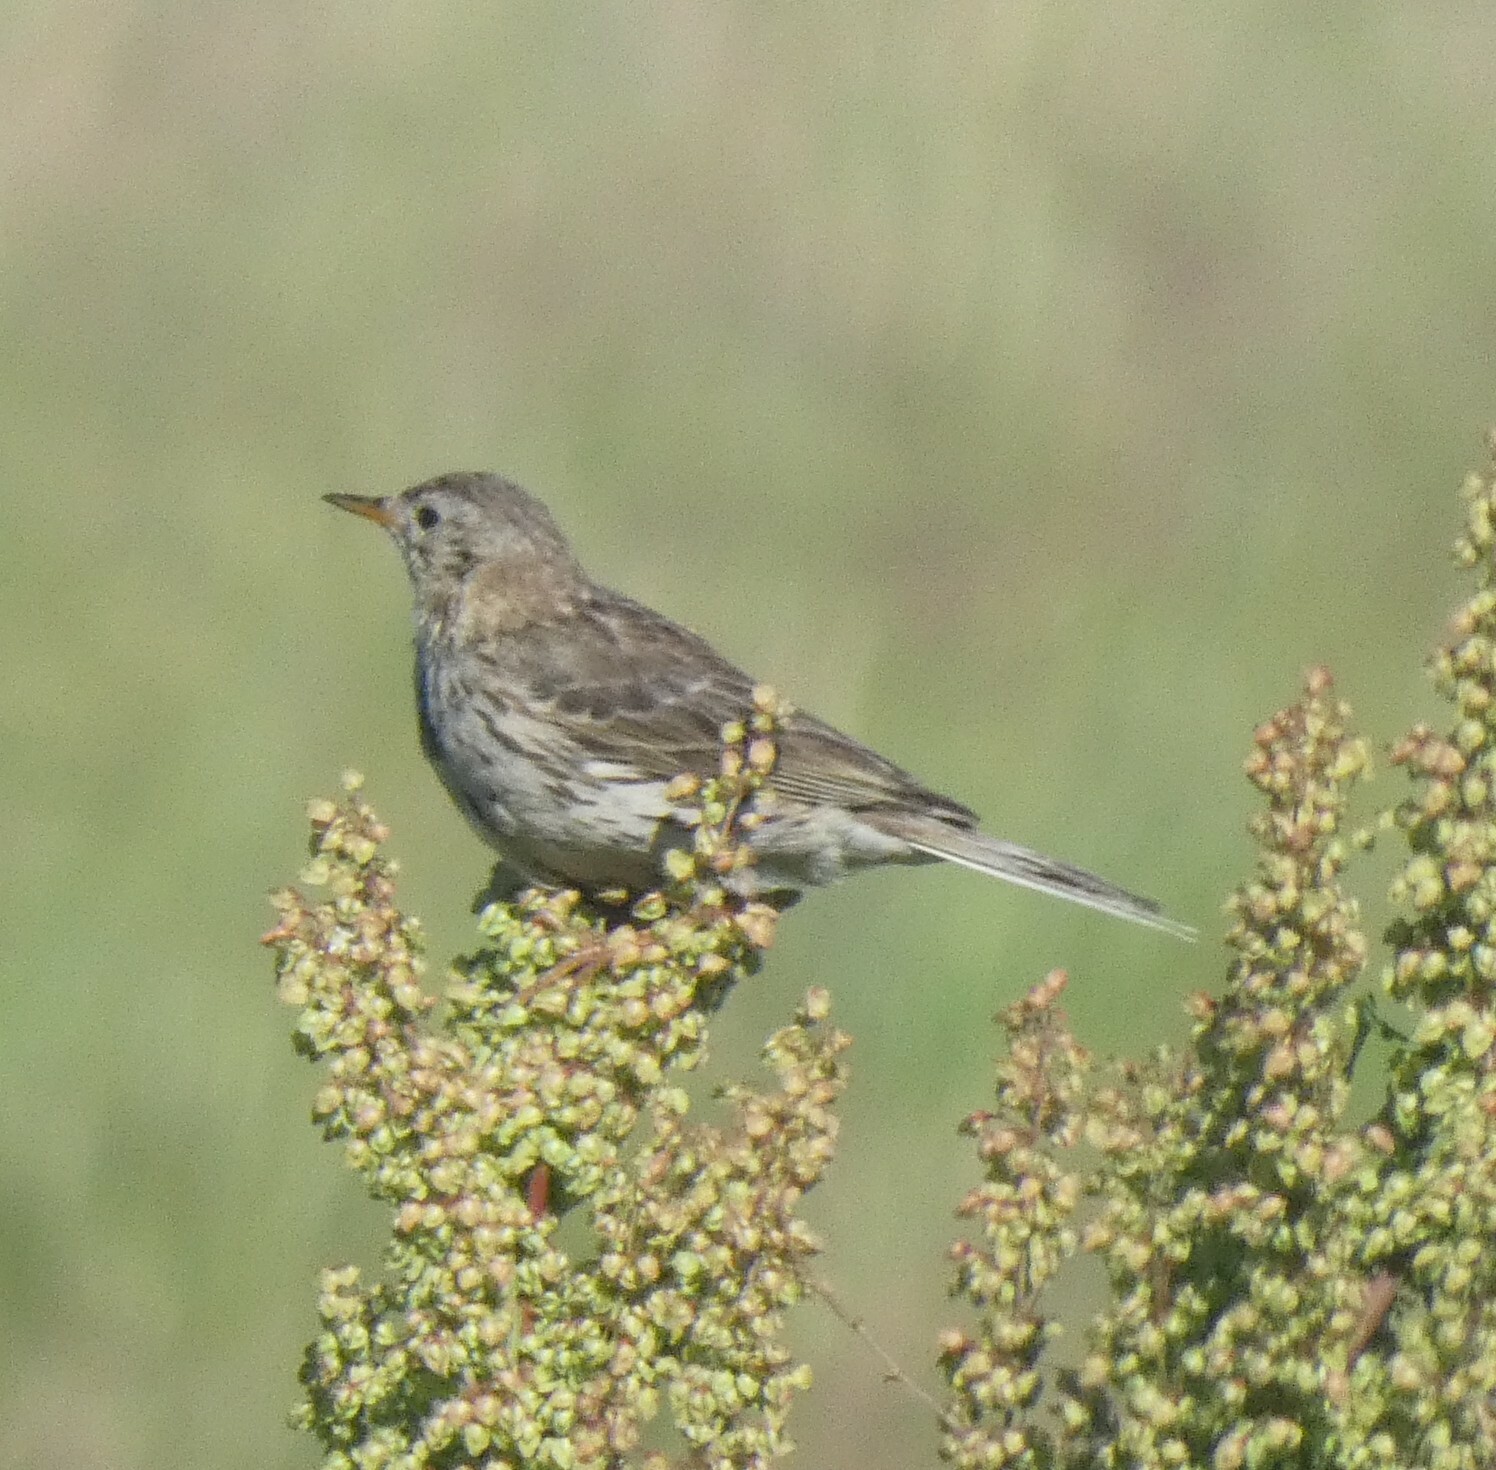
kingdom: Animalia
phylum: Chordata
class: Aves
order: Passeriformes
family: Motacillidae
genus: Anthus
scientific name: Anthus pratensis
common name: Meadow pipit
